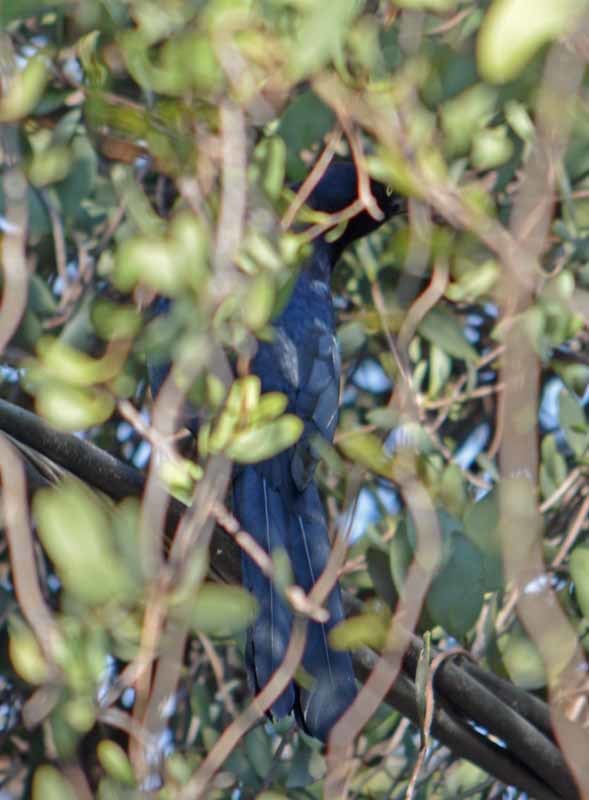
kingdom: Animalia
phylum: Chordata
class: Aves
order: Passeriformes
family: Icteridae
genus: Quiscalus
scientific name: Quiscalus mexicanus
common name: Great-tailed grackle
